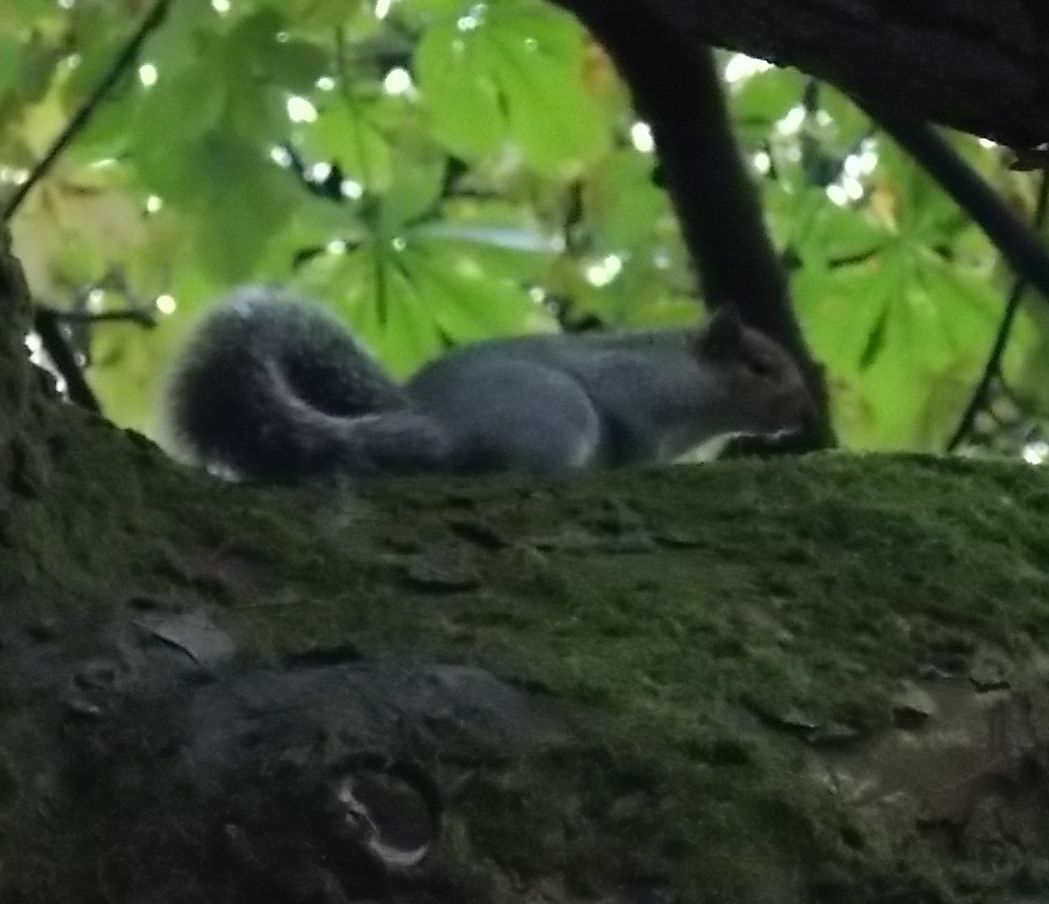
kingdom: Animalia
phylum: Chordata
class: Mammalia
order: Rodentia
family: Sciuridae
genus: Sciurus
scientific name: Sciurus carolinensis
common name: Eastern gray squirrel
